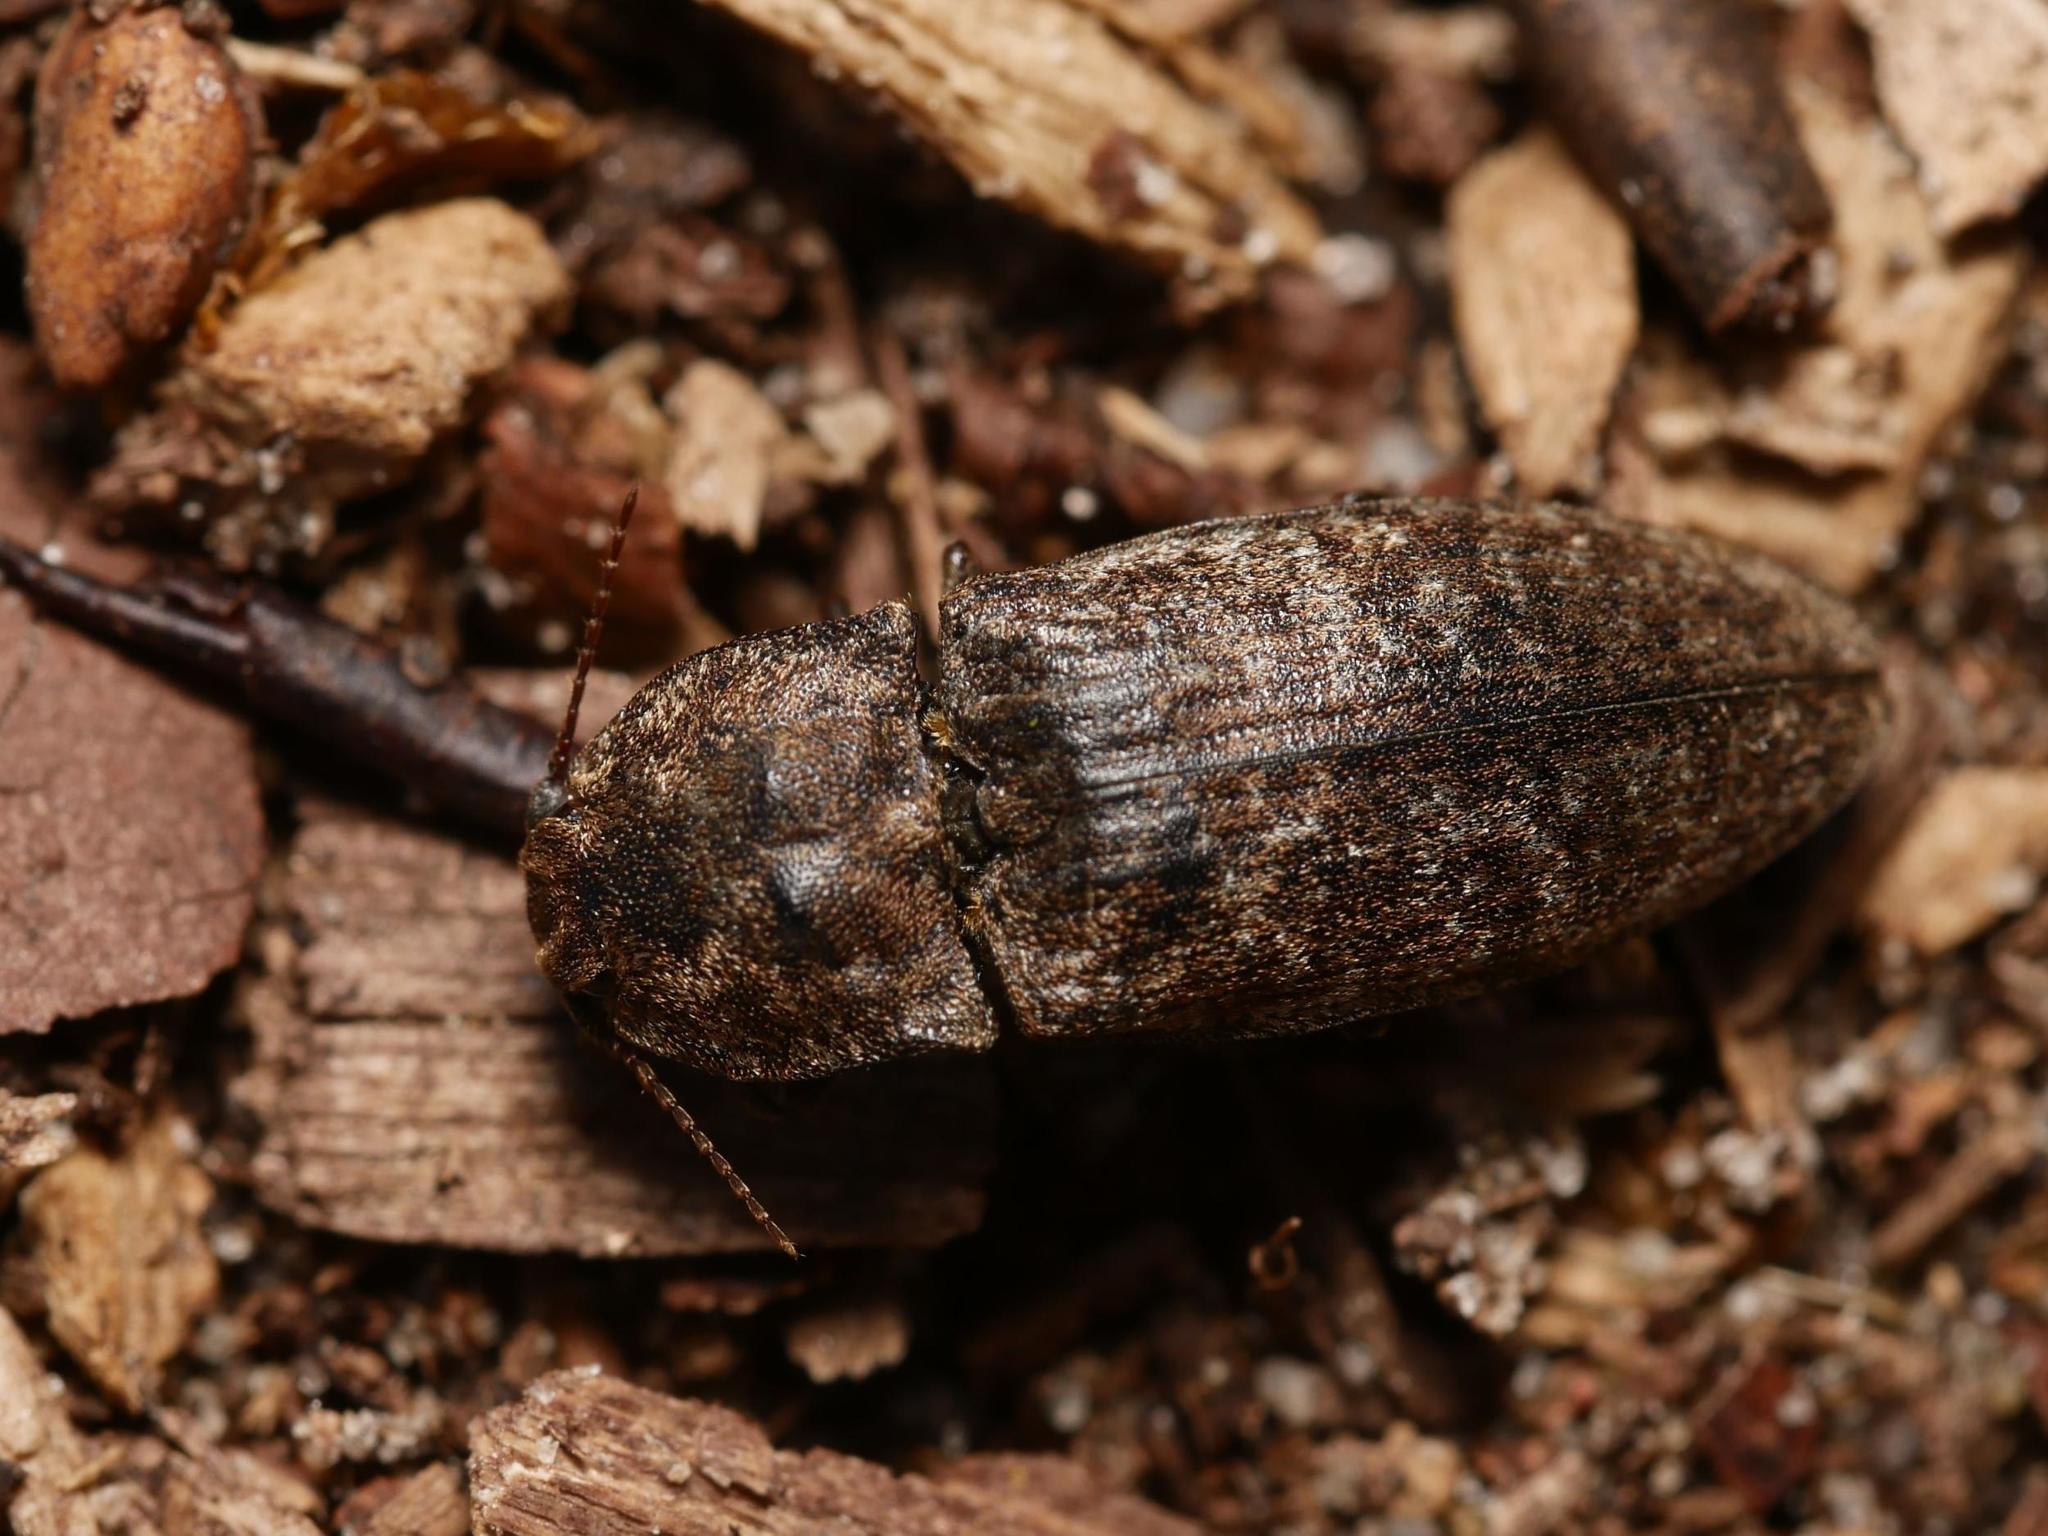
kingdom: Animalia
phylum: Arthropoda
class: Insecta
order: Coleoptera
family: Elateridae
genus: Agrypnus
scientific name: Agrypnus murinus
